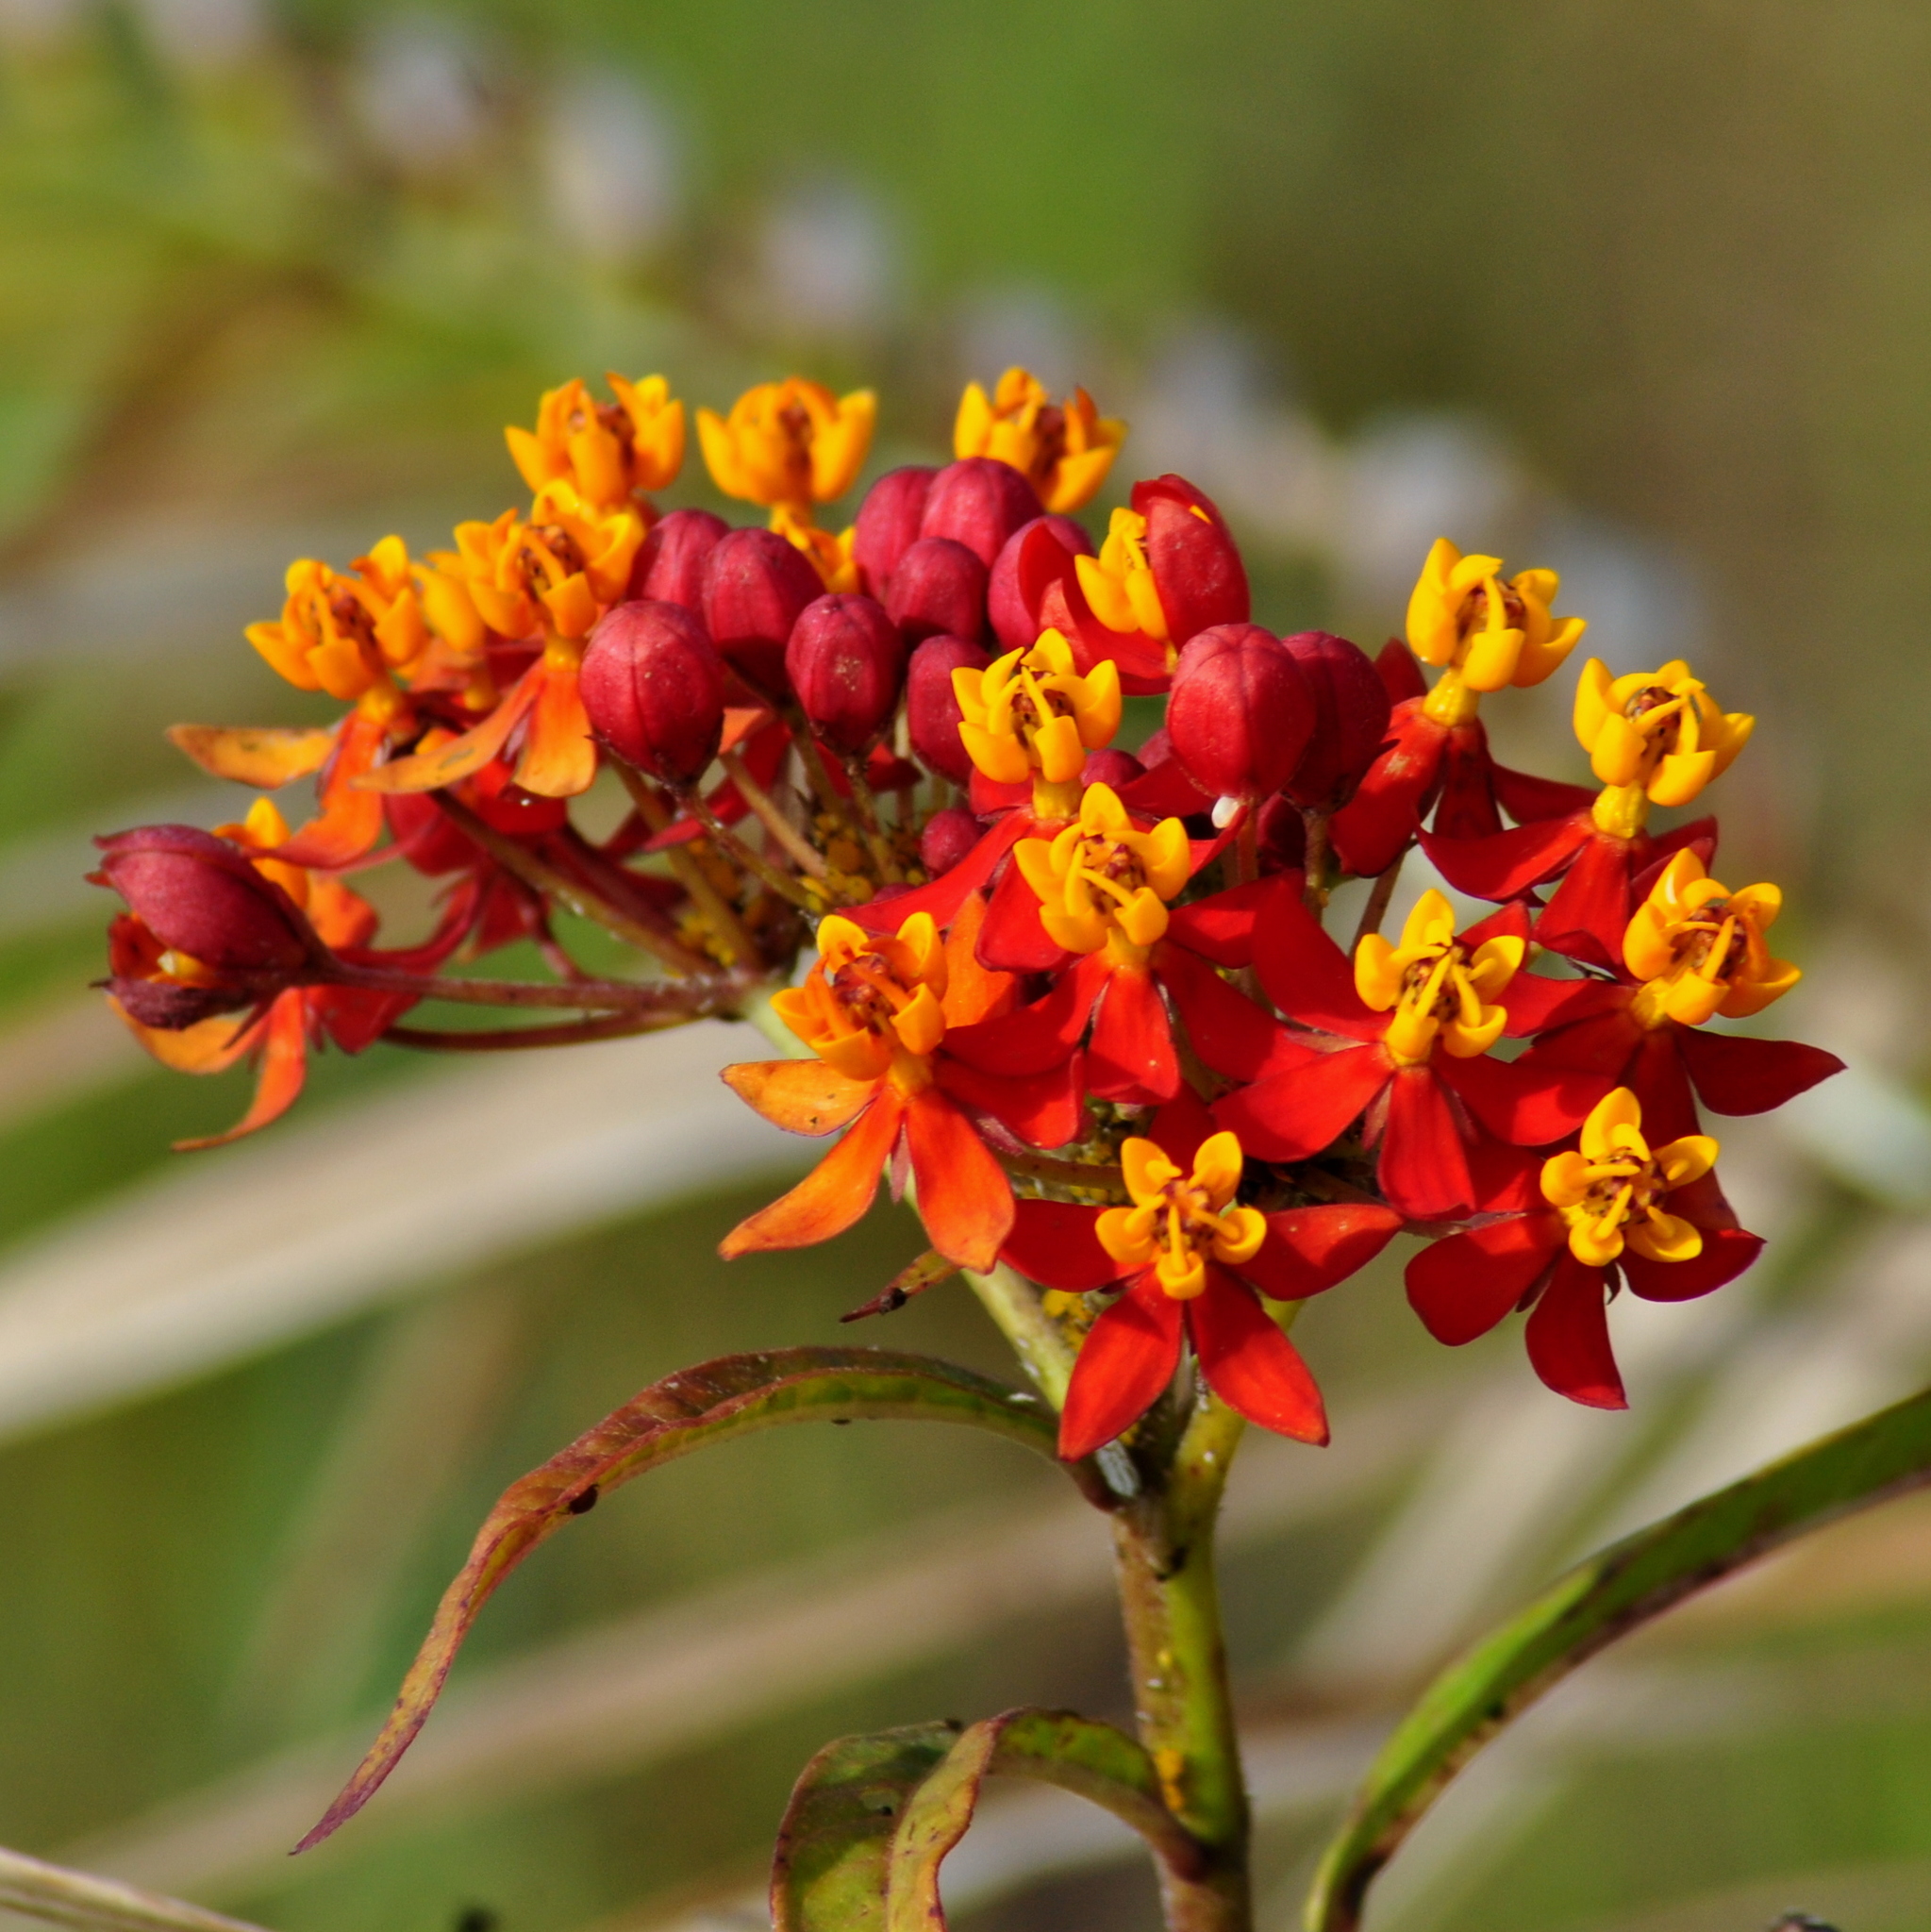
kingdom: Plantae
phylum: Tracheophyta
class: Magnoliopsida
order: Gentianales
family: Apocynaceae
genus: Asclepias
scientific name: Asclepias curassavica
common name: Bloodflower
